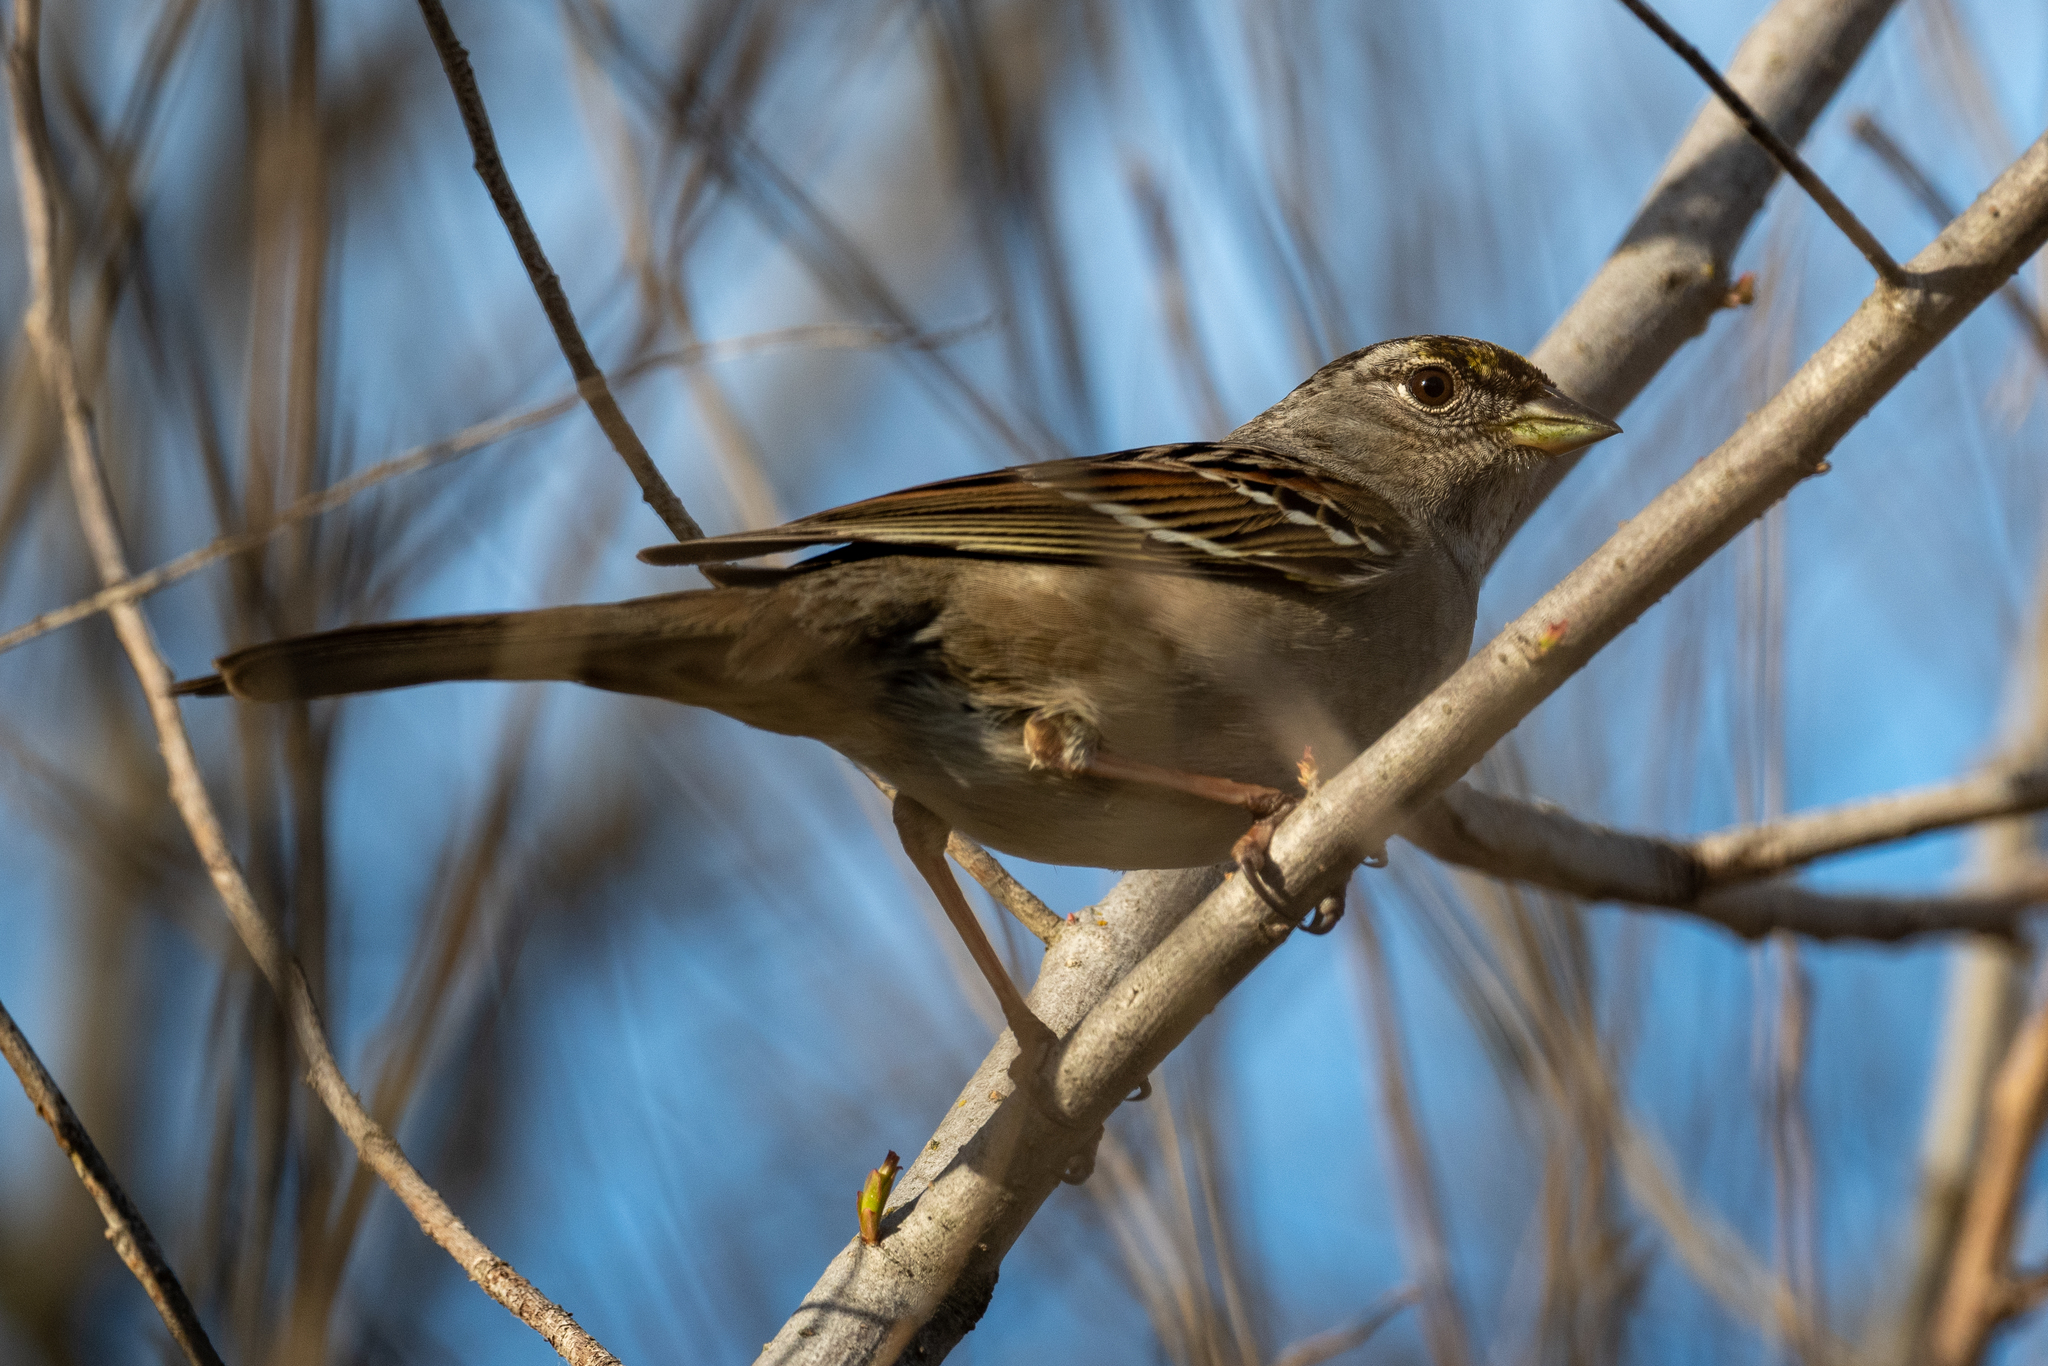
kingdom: Animalia
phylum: Chordata
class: Aves
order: Passeriformes
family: Passerellidae
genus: Zonotrichia
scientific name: Zonotrichia atricapilla
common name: Golden-crowned sparrow
